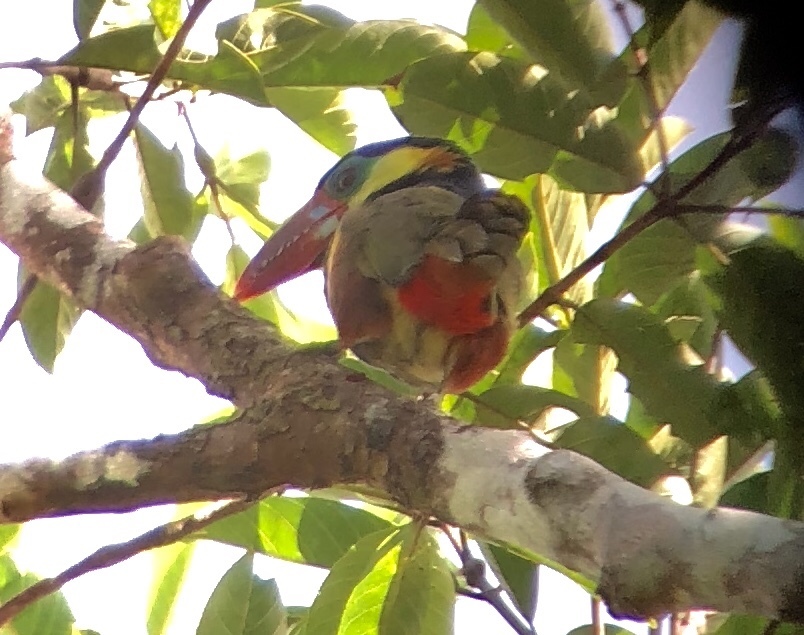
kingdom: Animalia
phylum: Chordata
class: Aves
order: Piciformes
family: Ramphastidae
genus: Selenidera
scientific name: Selenidera nattereri
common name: Tawny-tufted toucanet
